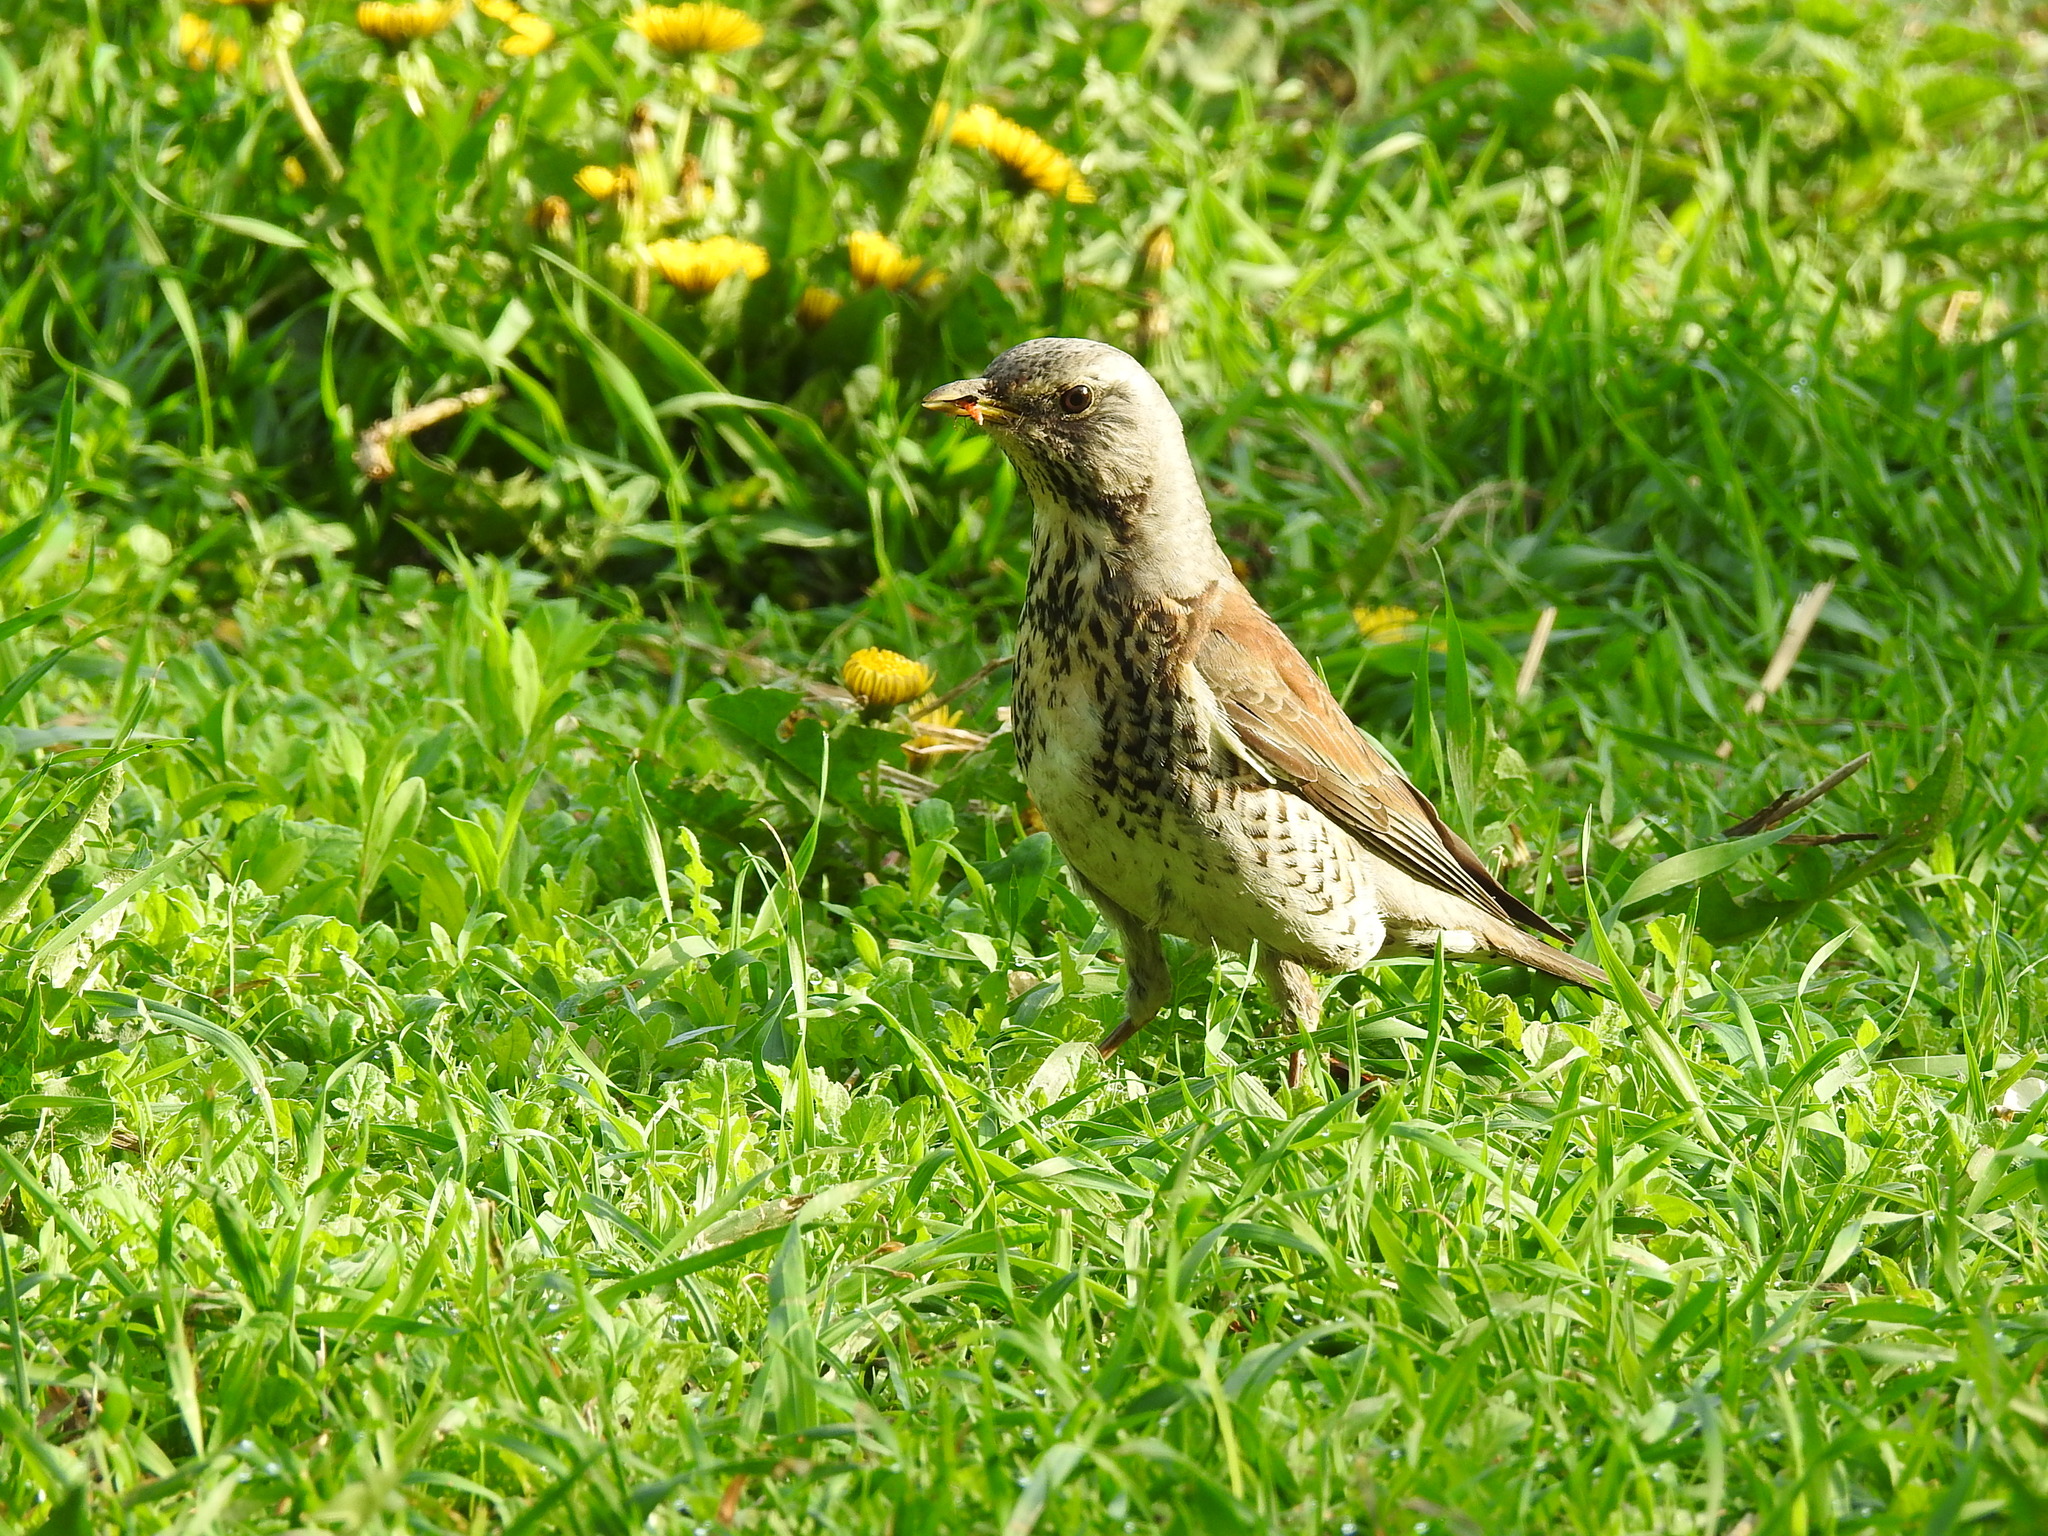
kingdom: Animalia
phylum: Chordata
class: Aves
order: Passeriformes
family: Turdidae
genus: Turdus
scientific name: Turdus pilaris
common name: Fieldfare
